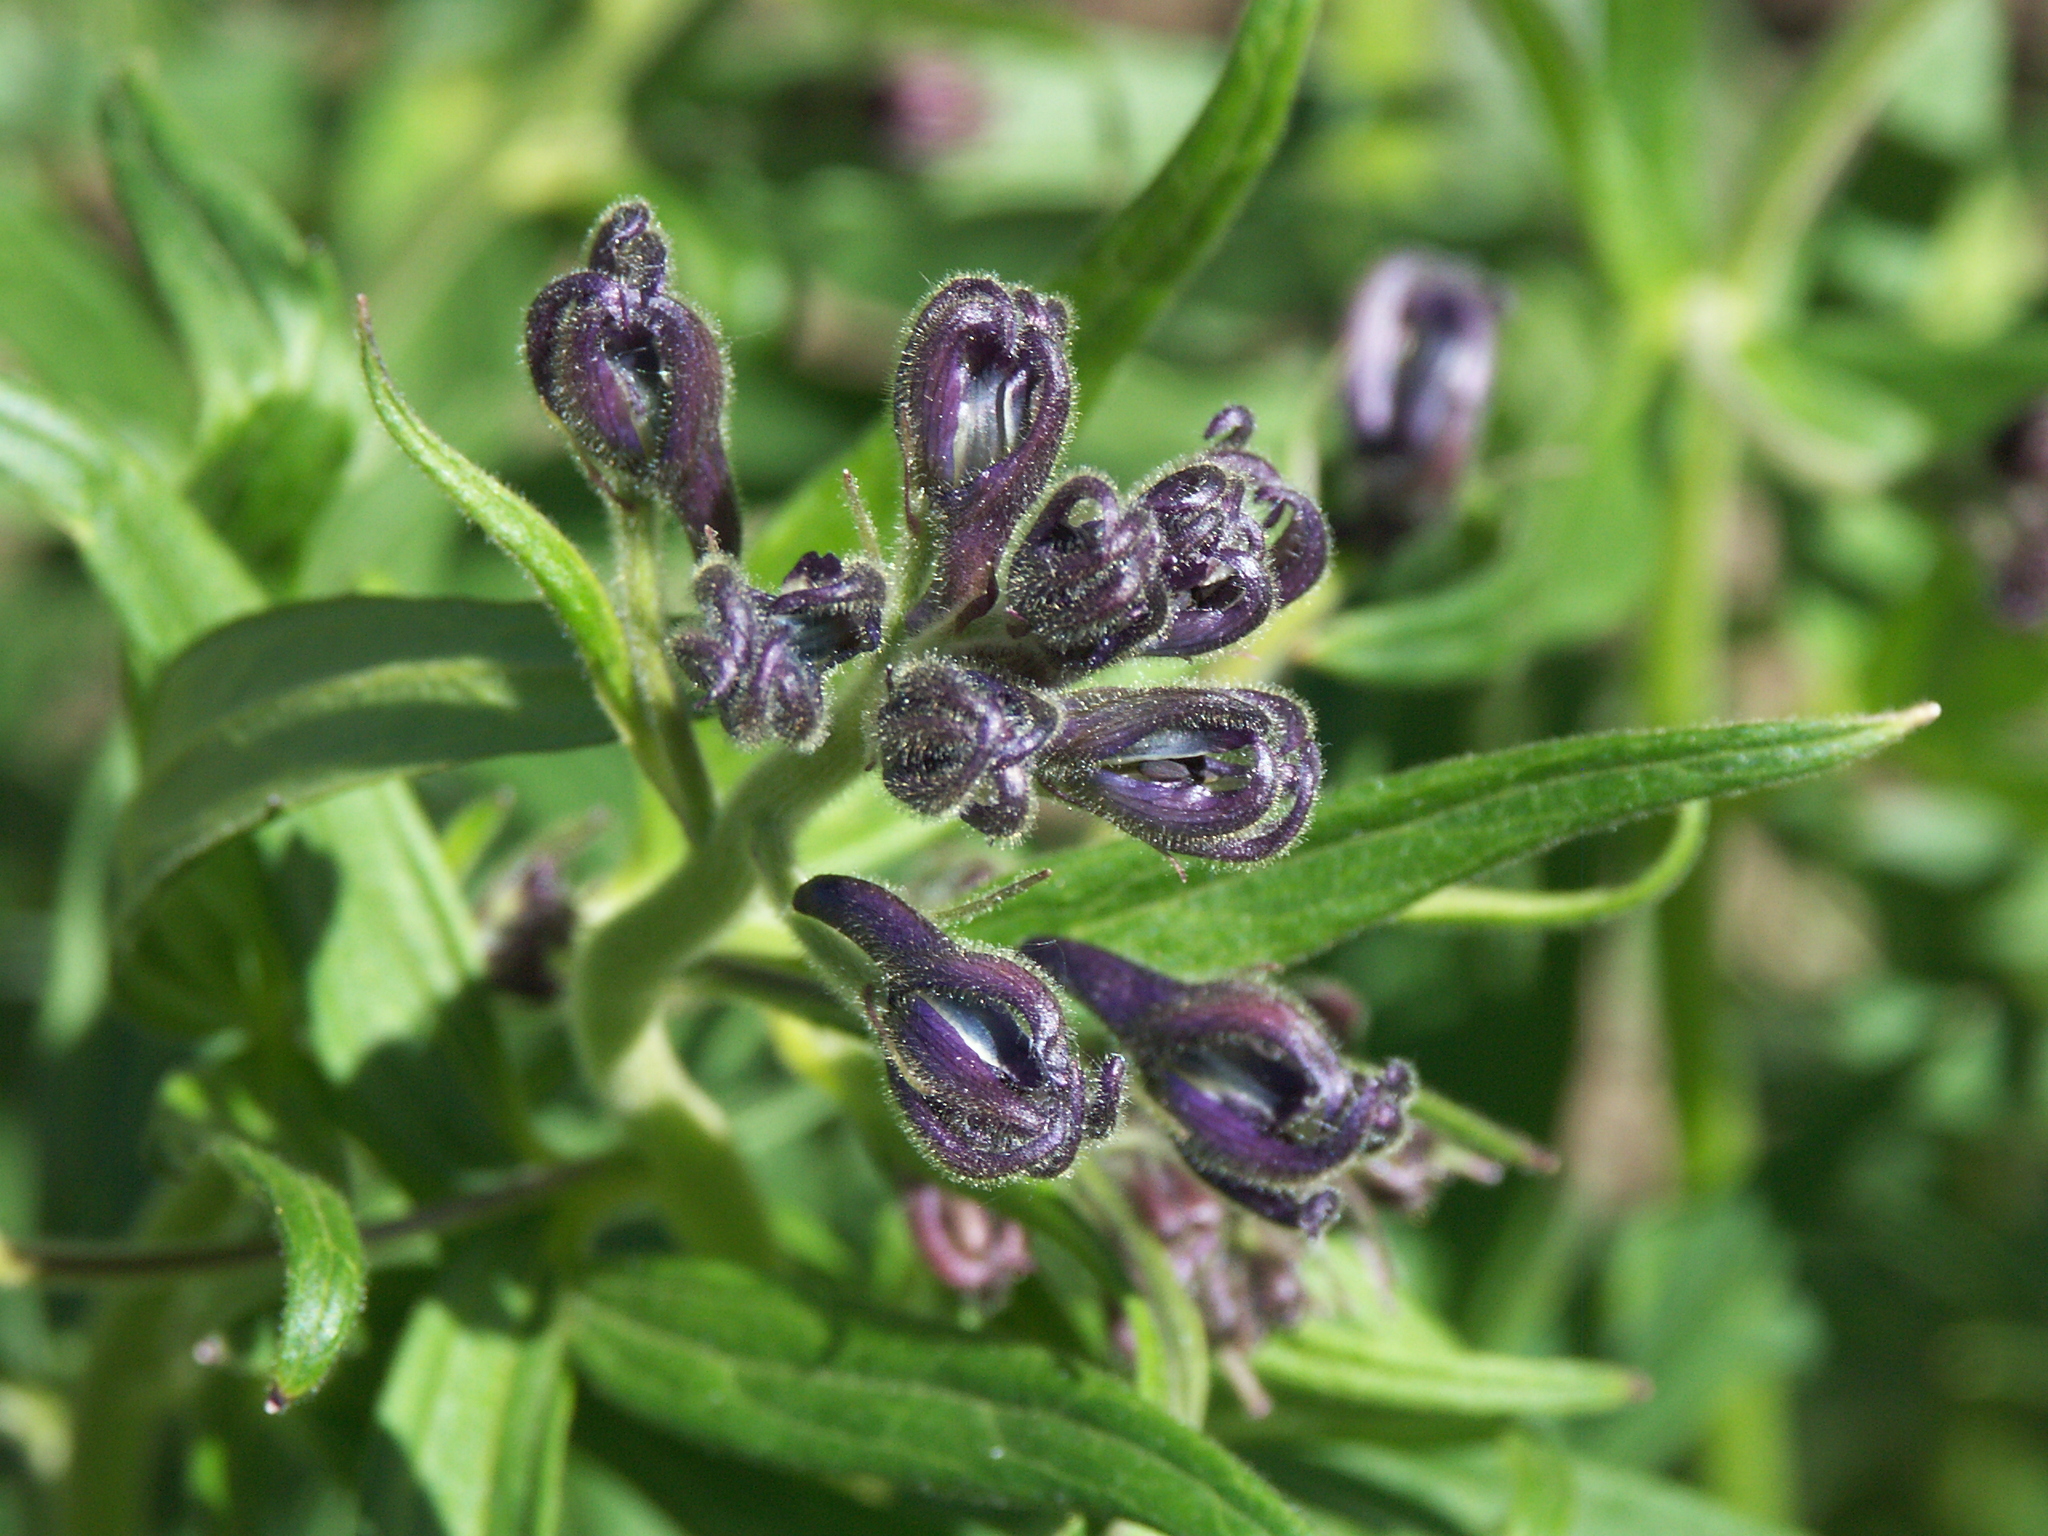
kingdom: Plantae
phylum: Tracheophyta
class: Magnoliopsida
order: Ranunculales
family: Ranunculaceae
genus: Delphinium
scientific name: Delphinium barbeyi
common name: Subalpine larkspur
